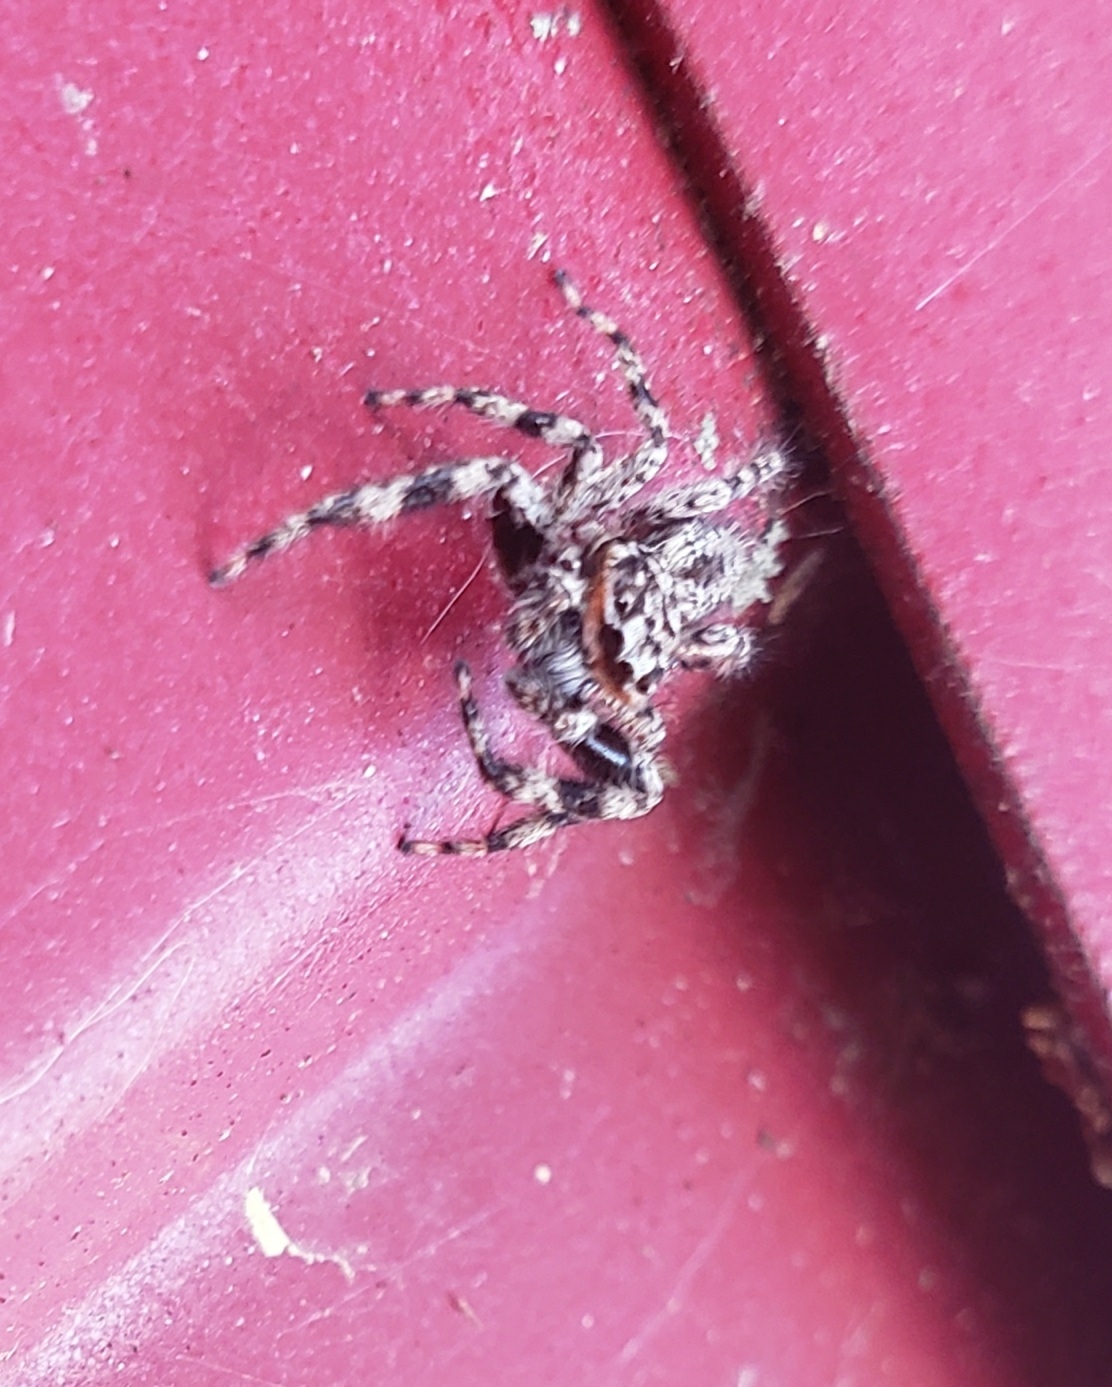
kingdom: Animalia
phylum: Arthropoda
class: Arachnida
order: Araneae
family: Salticidae
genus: Platycryptus
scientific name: Platycryptus undatus
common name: Tan jumping spider
